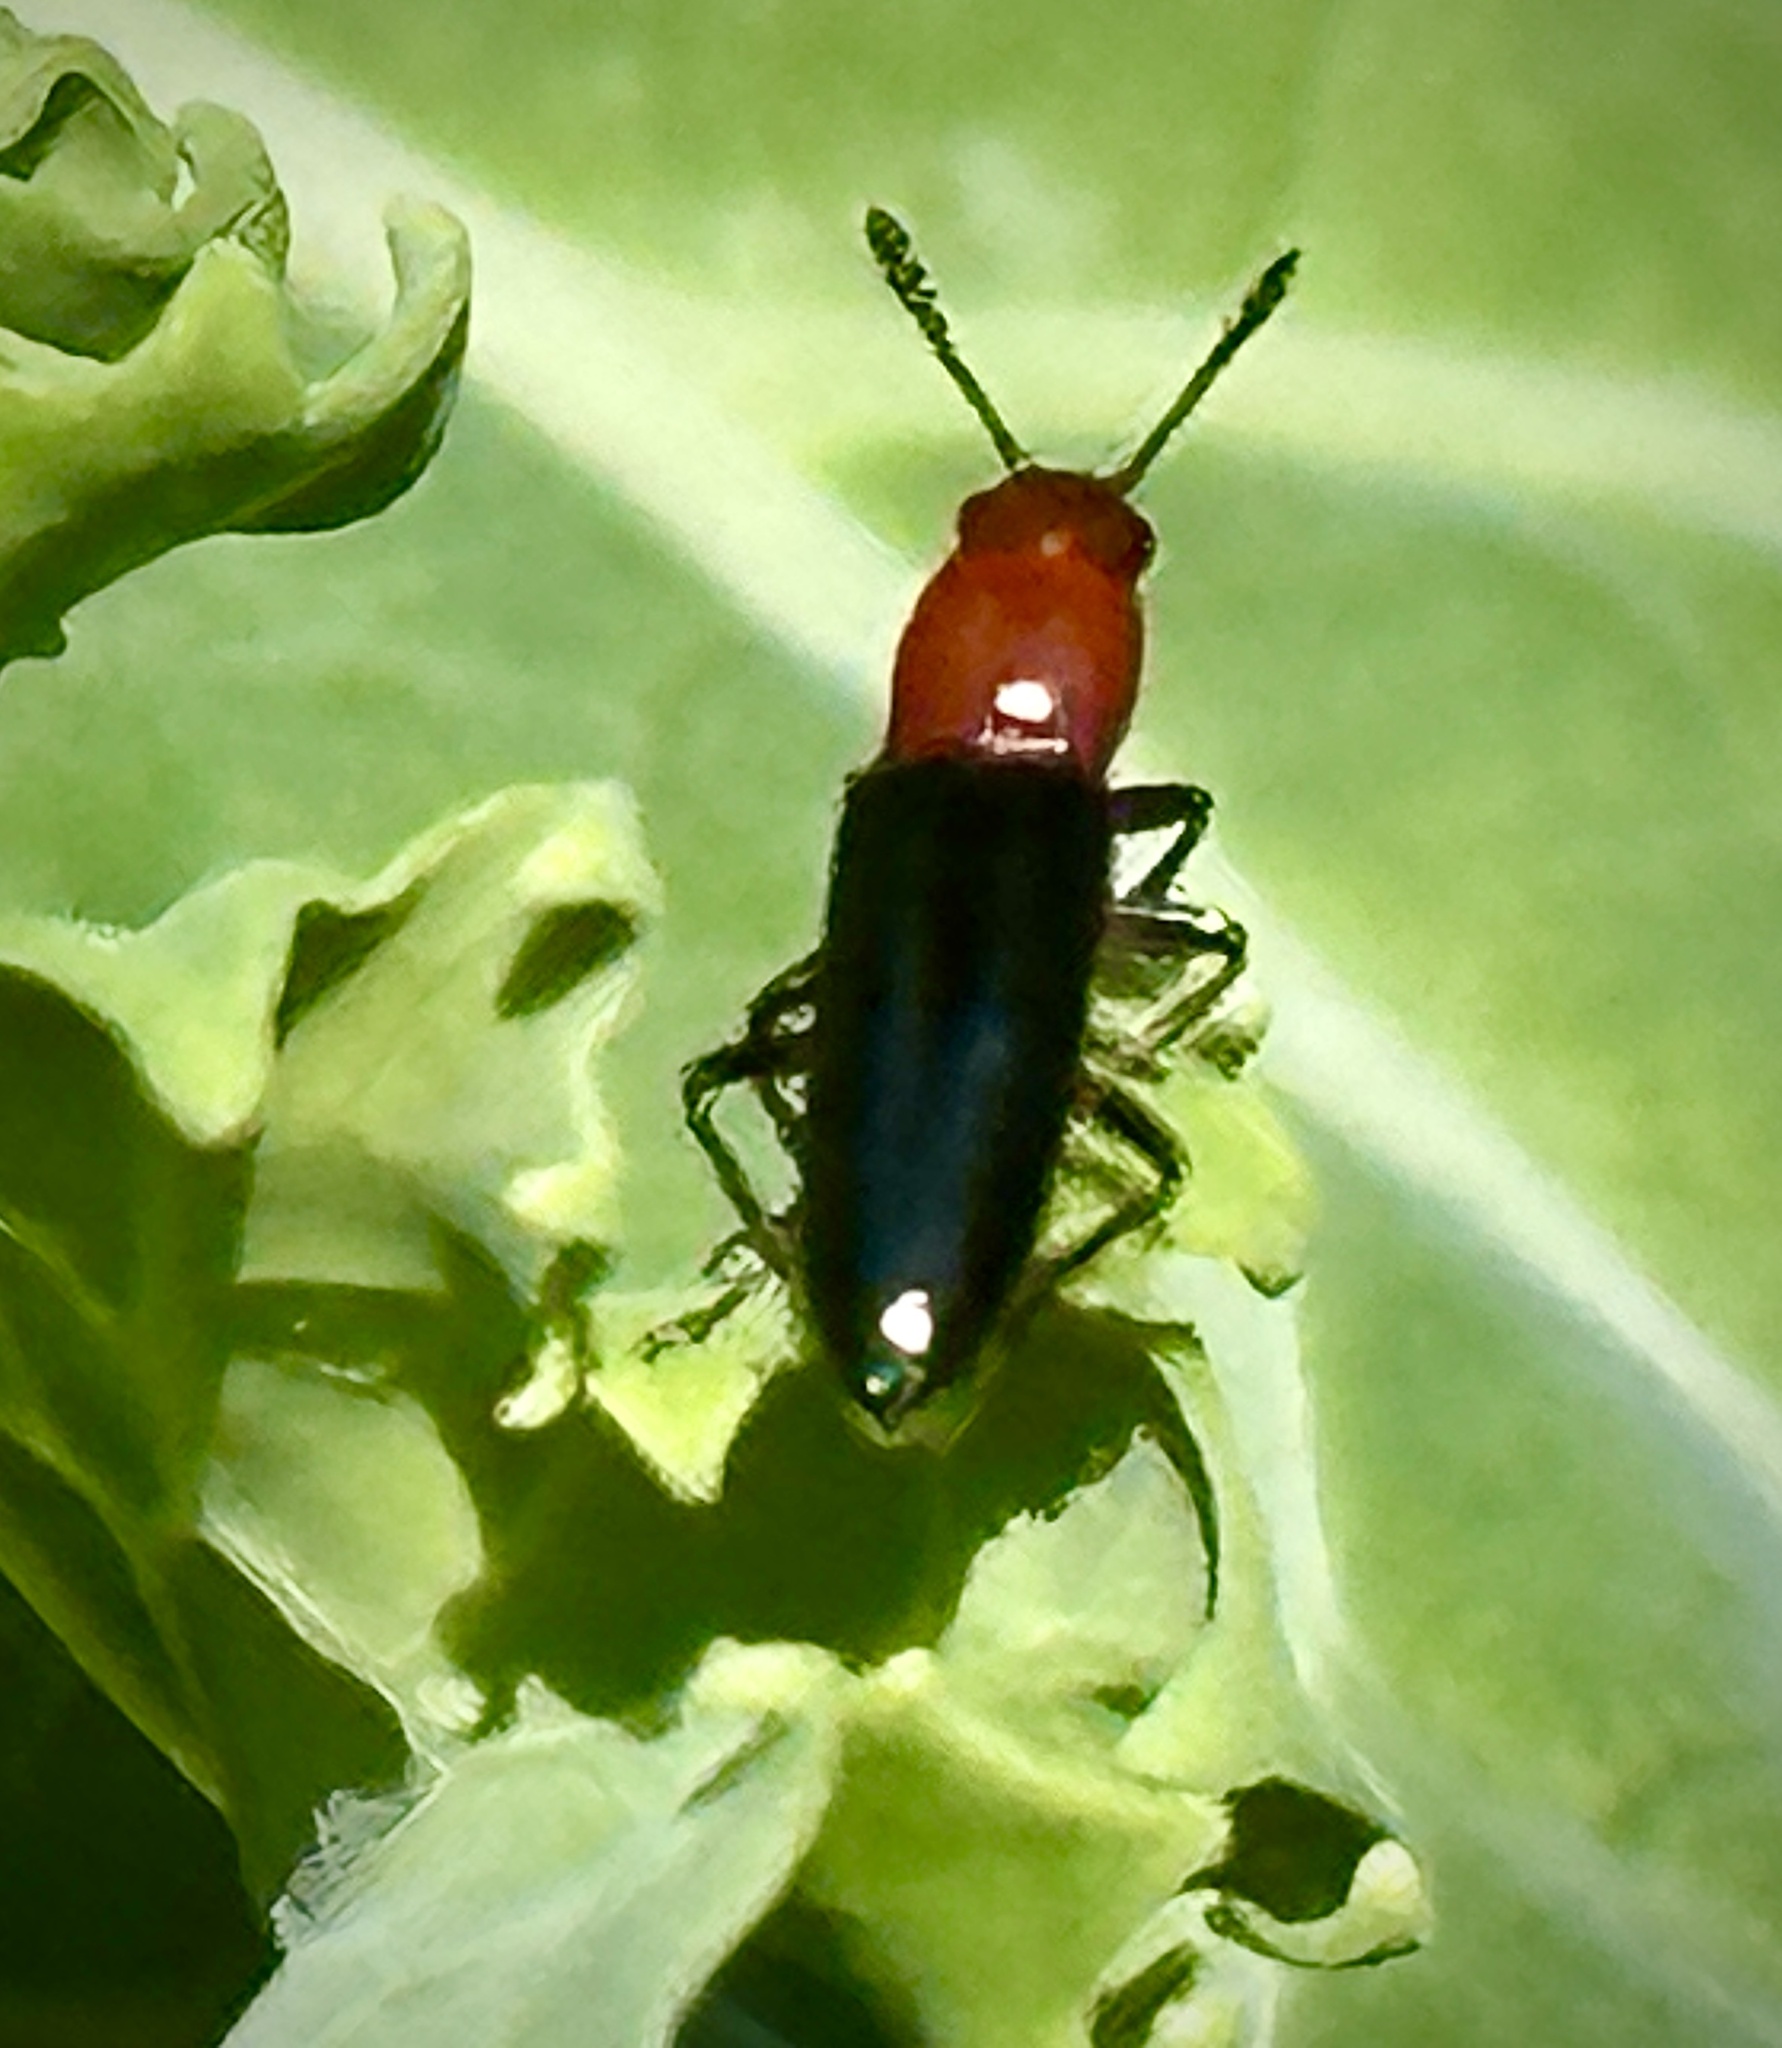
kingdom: Animalia
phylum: Arthropoda
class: Insecta
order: Coleoptera
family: Erotylidae
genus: Languria
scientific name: Languria mozardi
